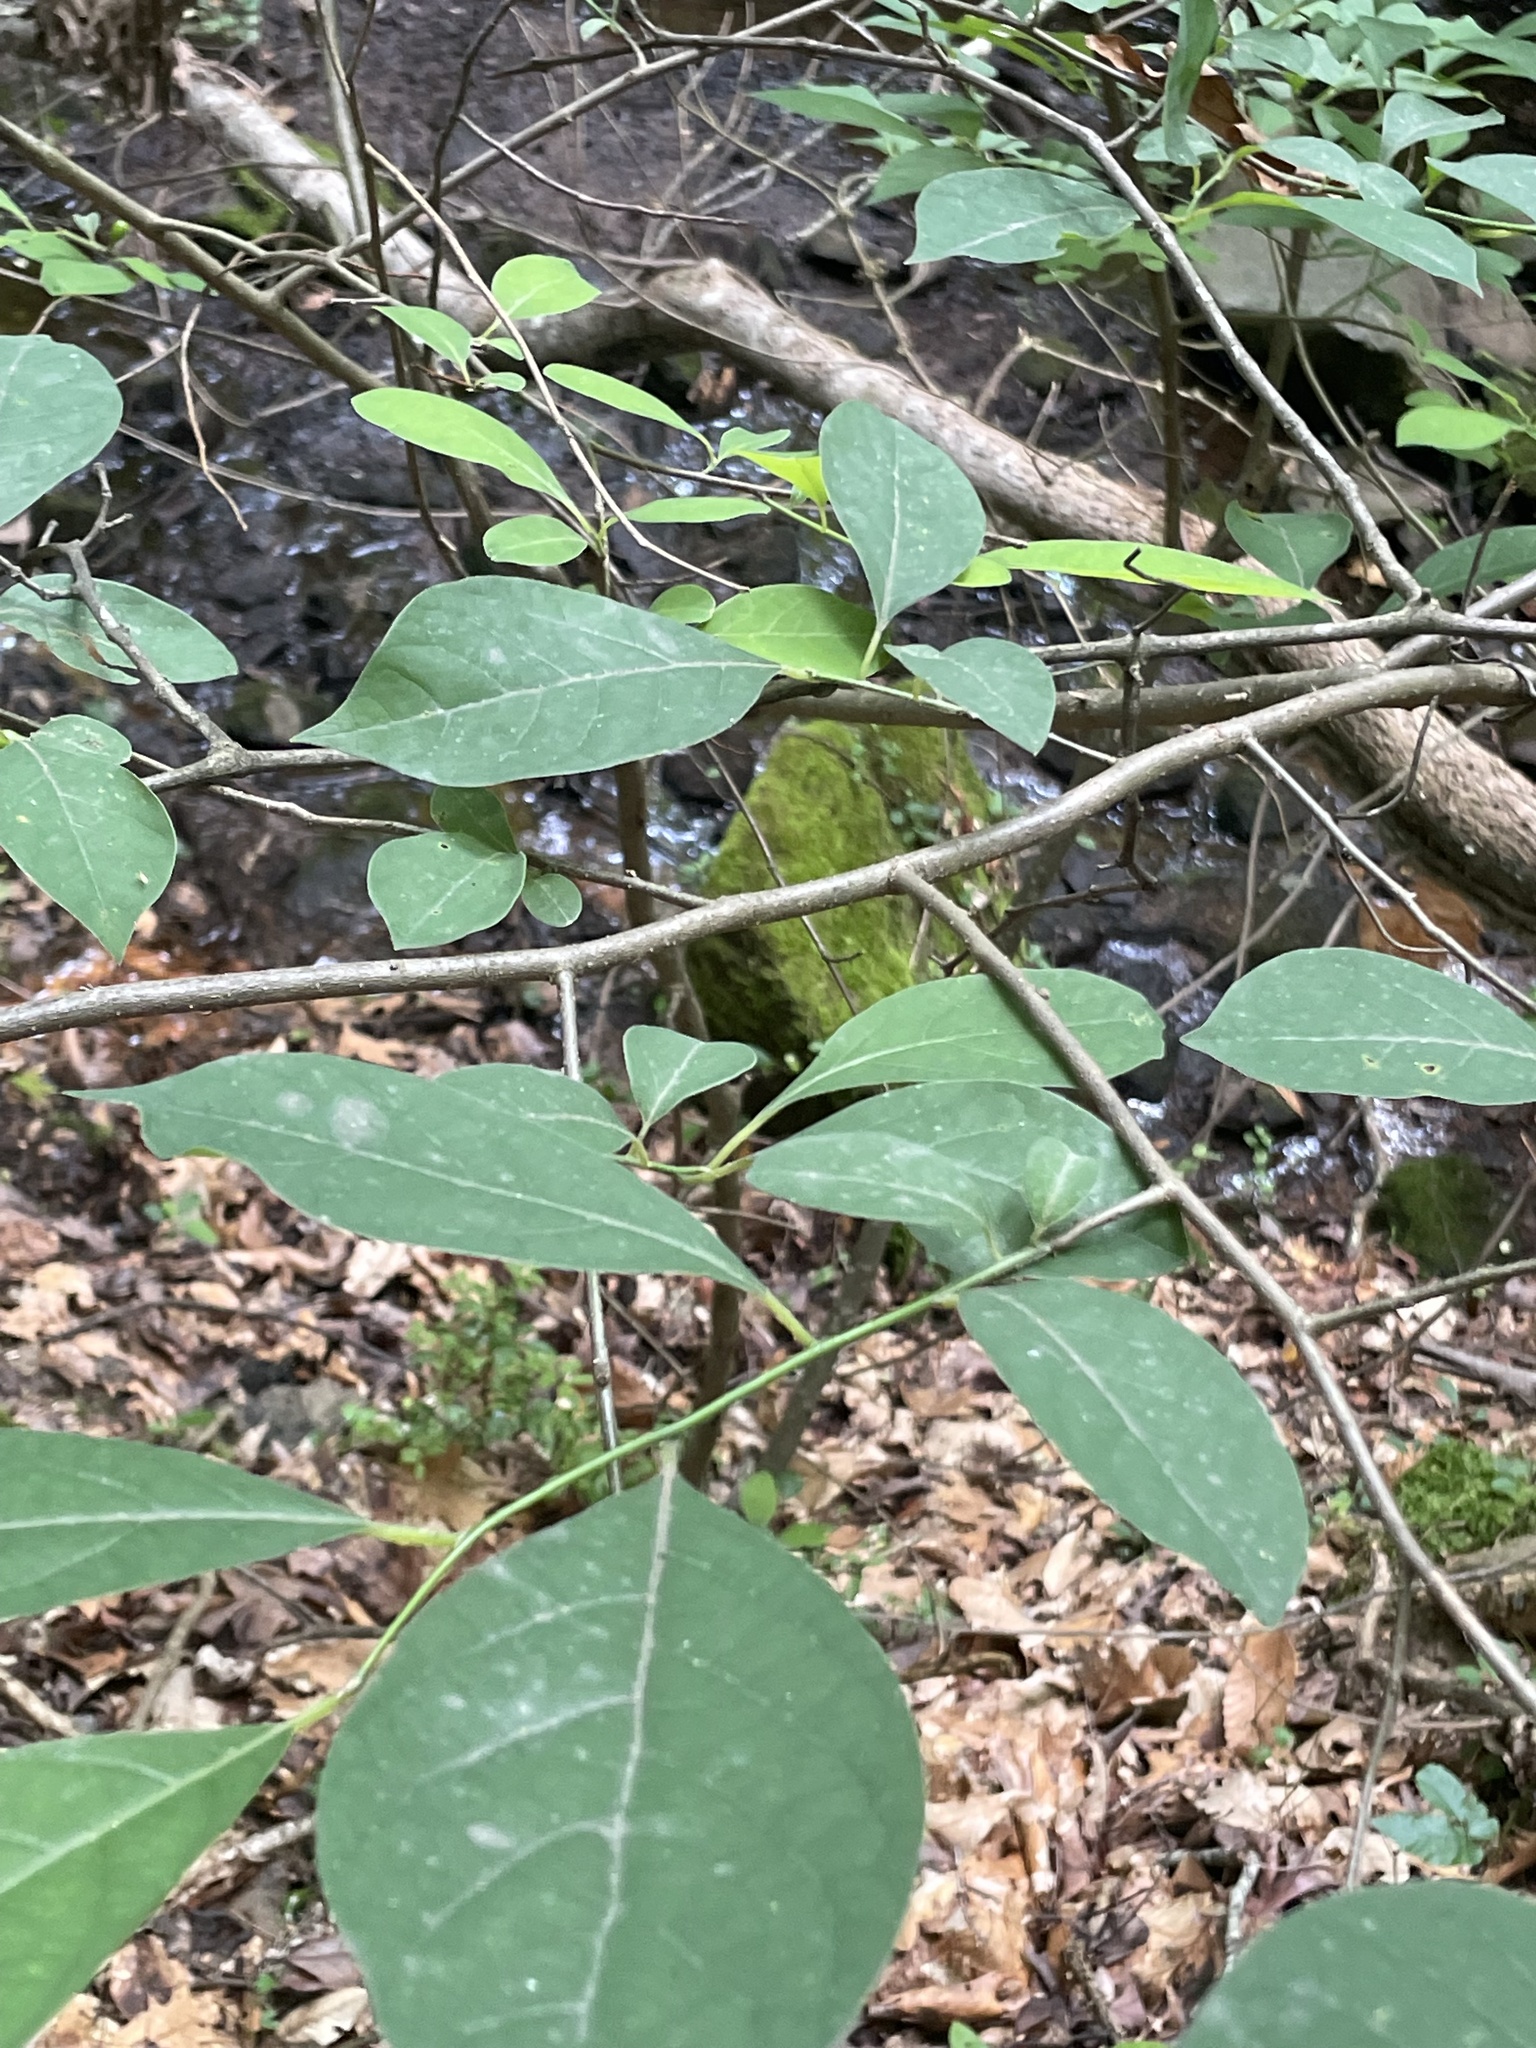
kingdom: Plantae
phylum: Tracheophyta
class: Magnoliopsida
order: Laurales
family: Lauraceae
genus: Lindera
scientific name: Lindera benzoin
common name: Spicebush
